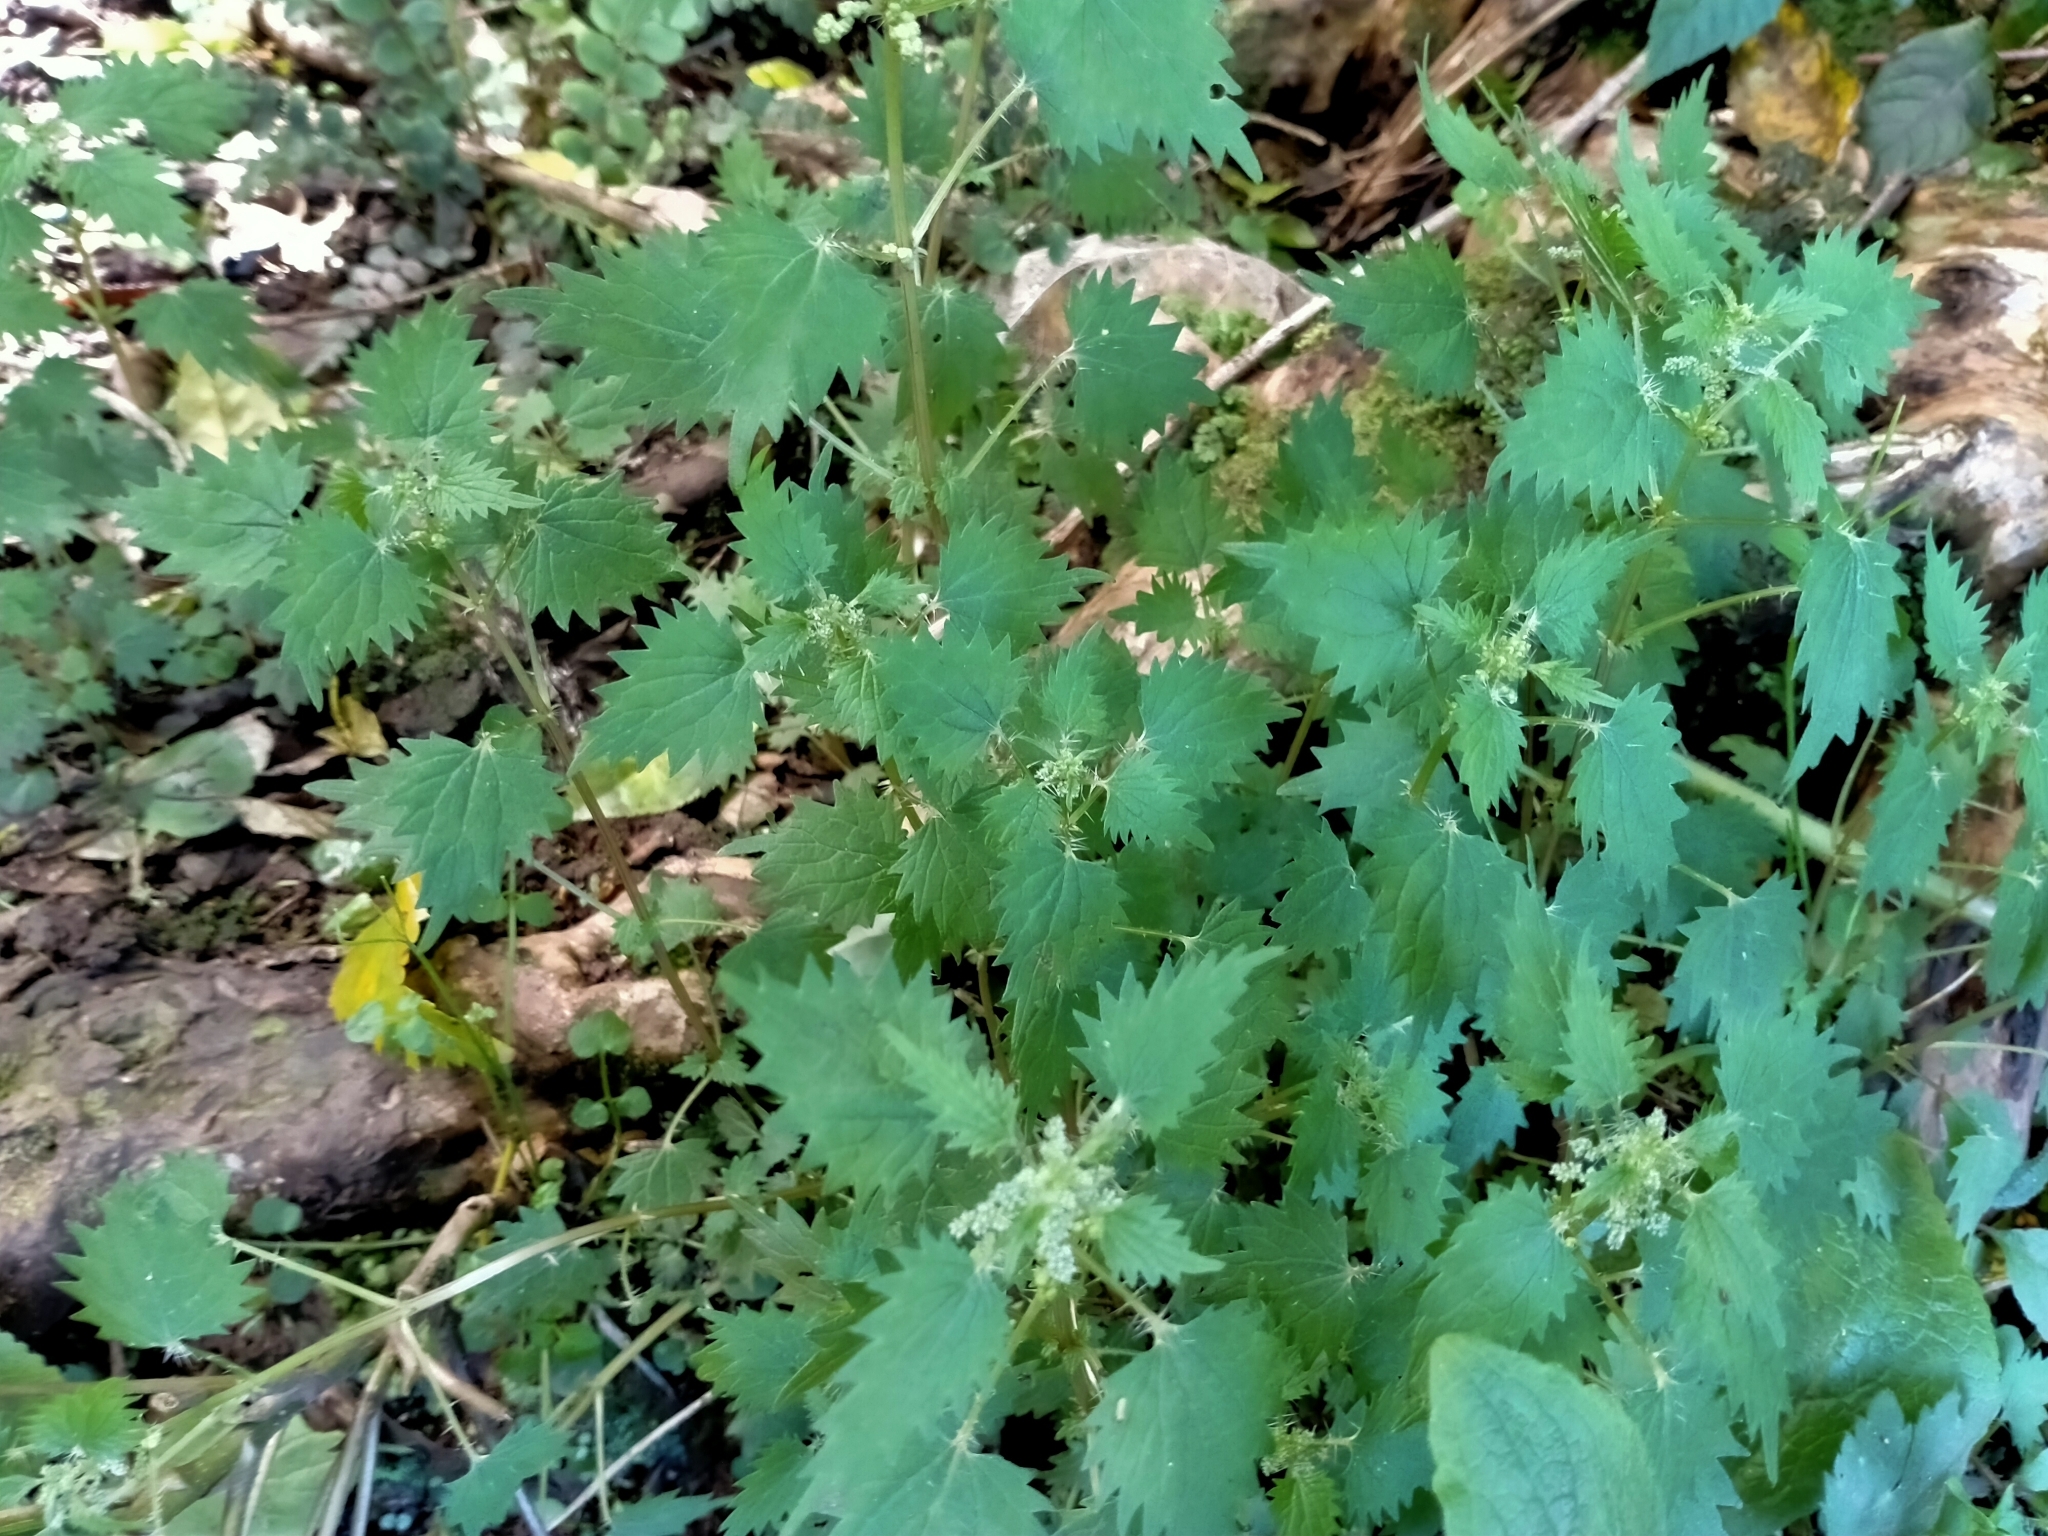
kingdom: Plantae
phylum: Tracheophyta
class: Magnoliopsida
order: Rosales
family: Urticaceae
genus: Urtica
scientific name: Urtica sykesii
